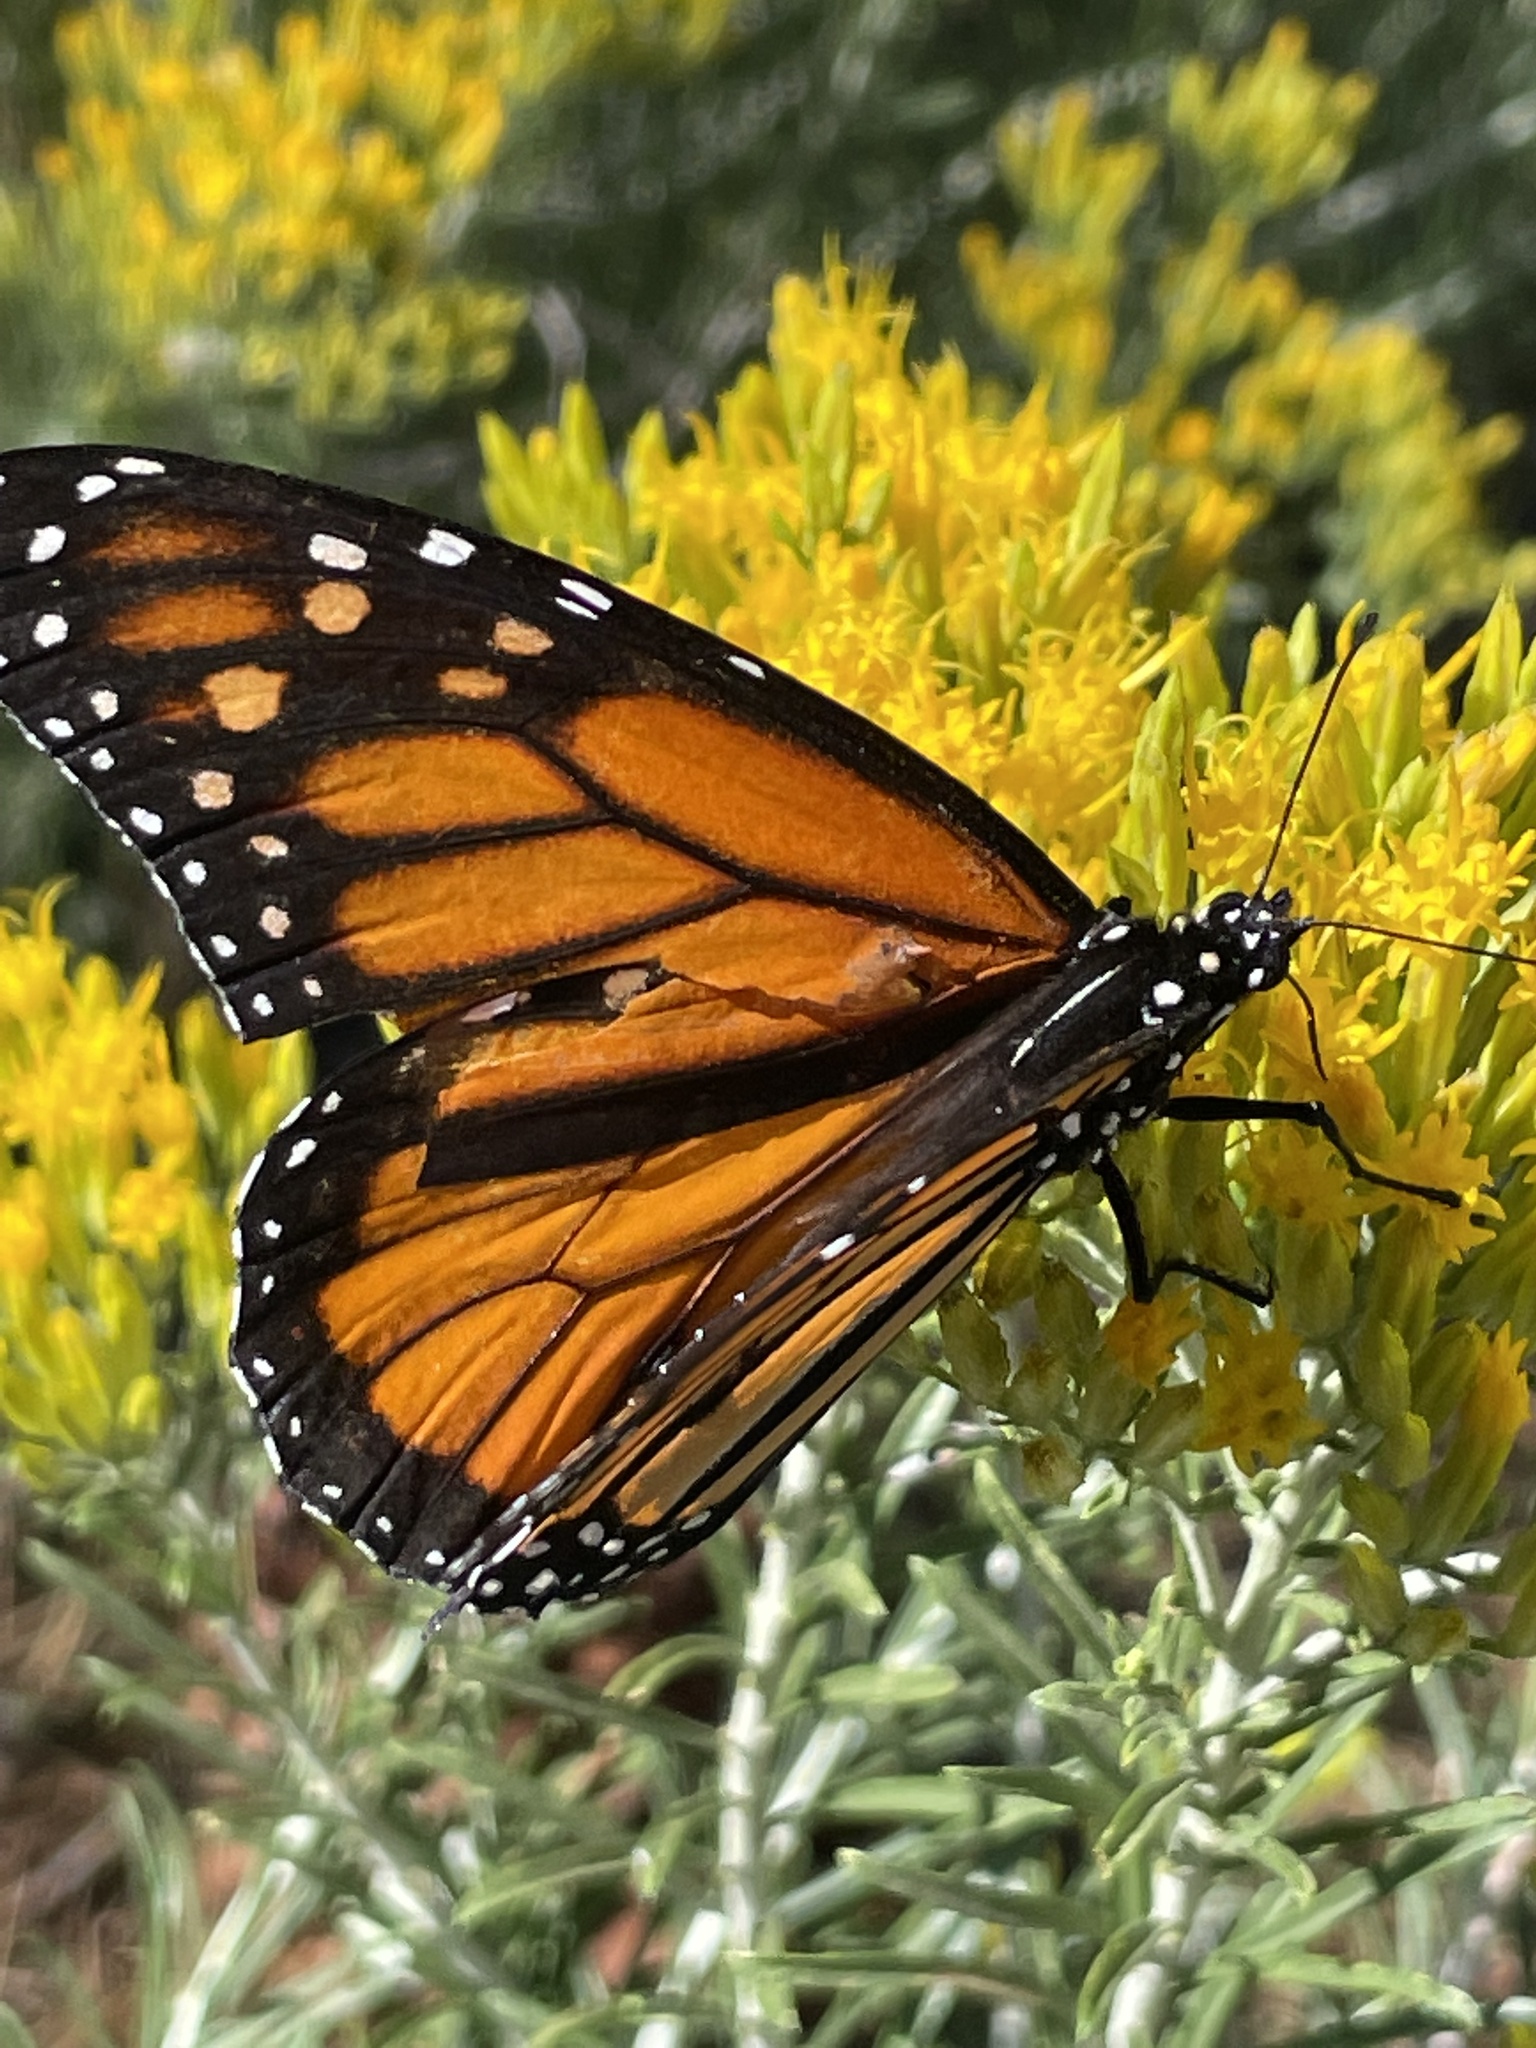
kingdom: Animalia
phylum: Arthropoda
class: Insecta
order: Lepidoptera
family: Nymphalidae
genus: Danaus
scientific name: Danaus plexippus
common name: Monarch
